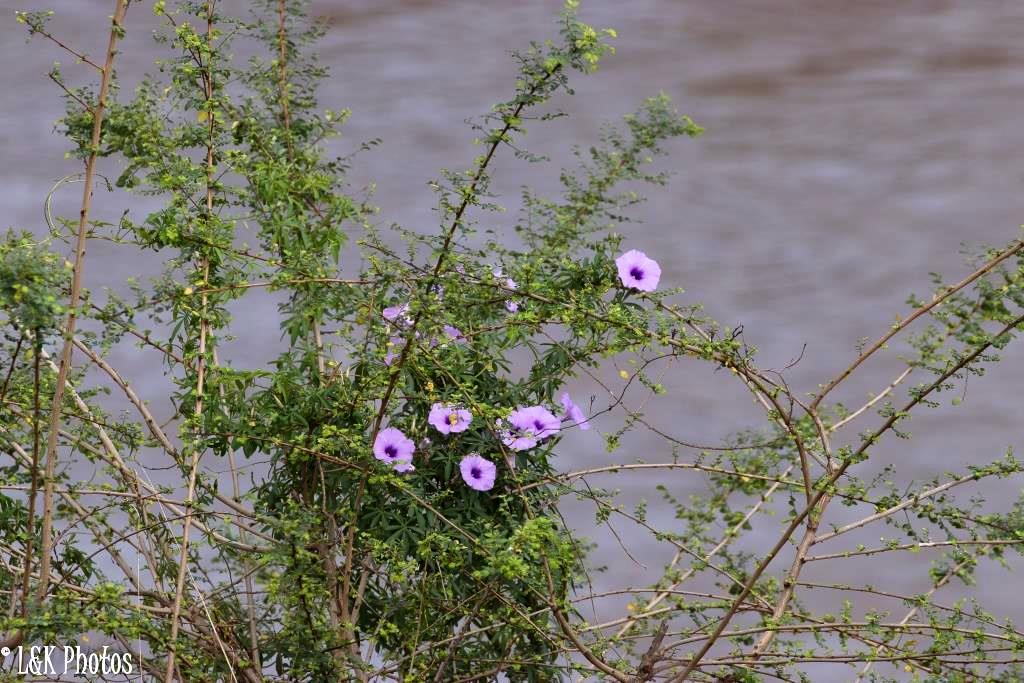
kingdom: Plantae
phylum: Tracheophyta
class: Magnoliopsida
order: Solanales
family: Convolvulaceae
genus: Ipomoea
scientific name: Ipomoea cairica
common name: Mile a minute vine
